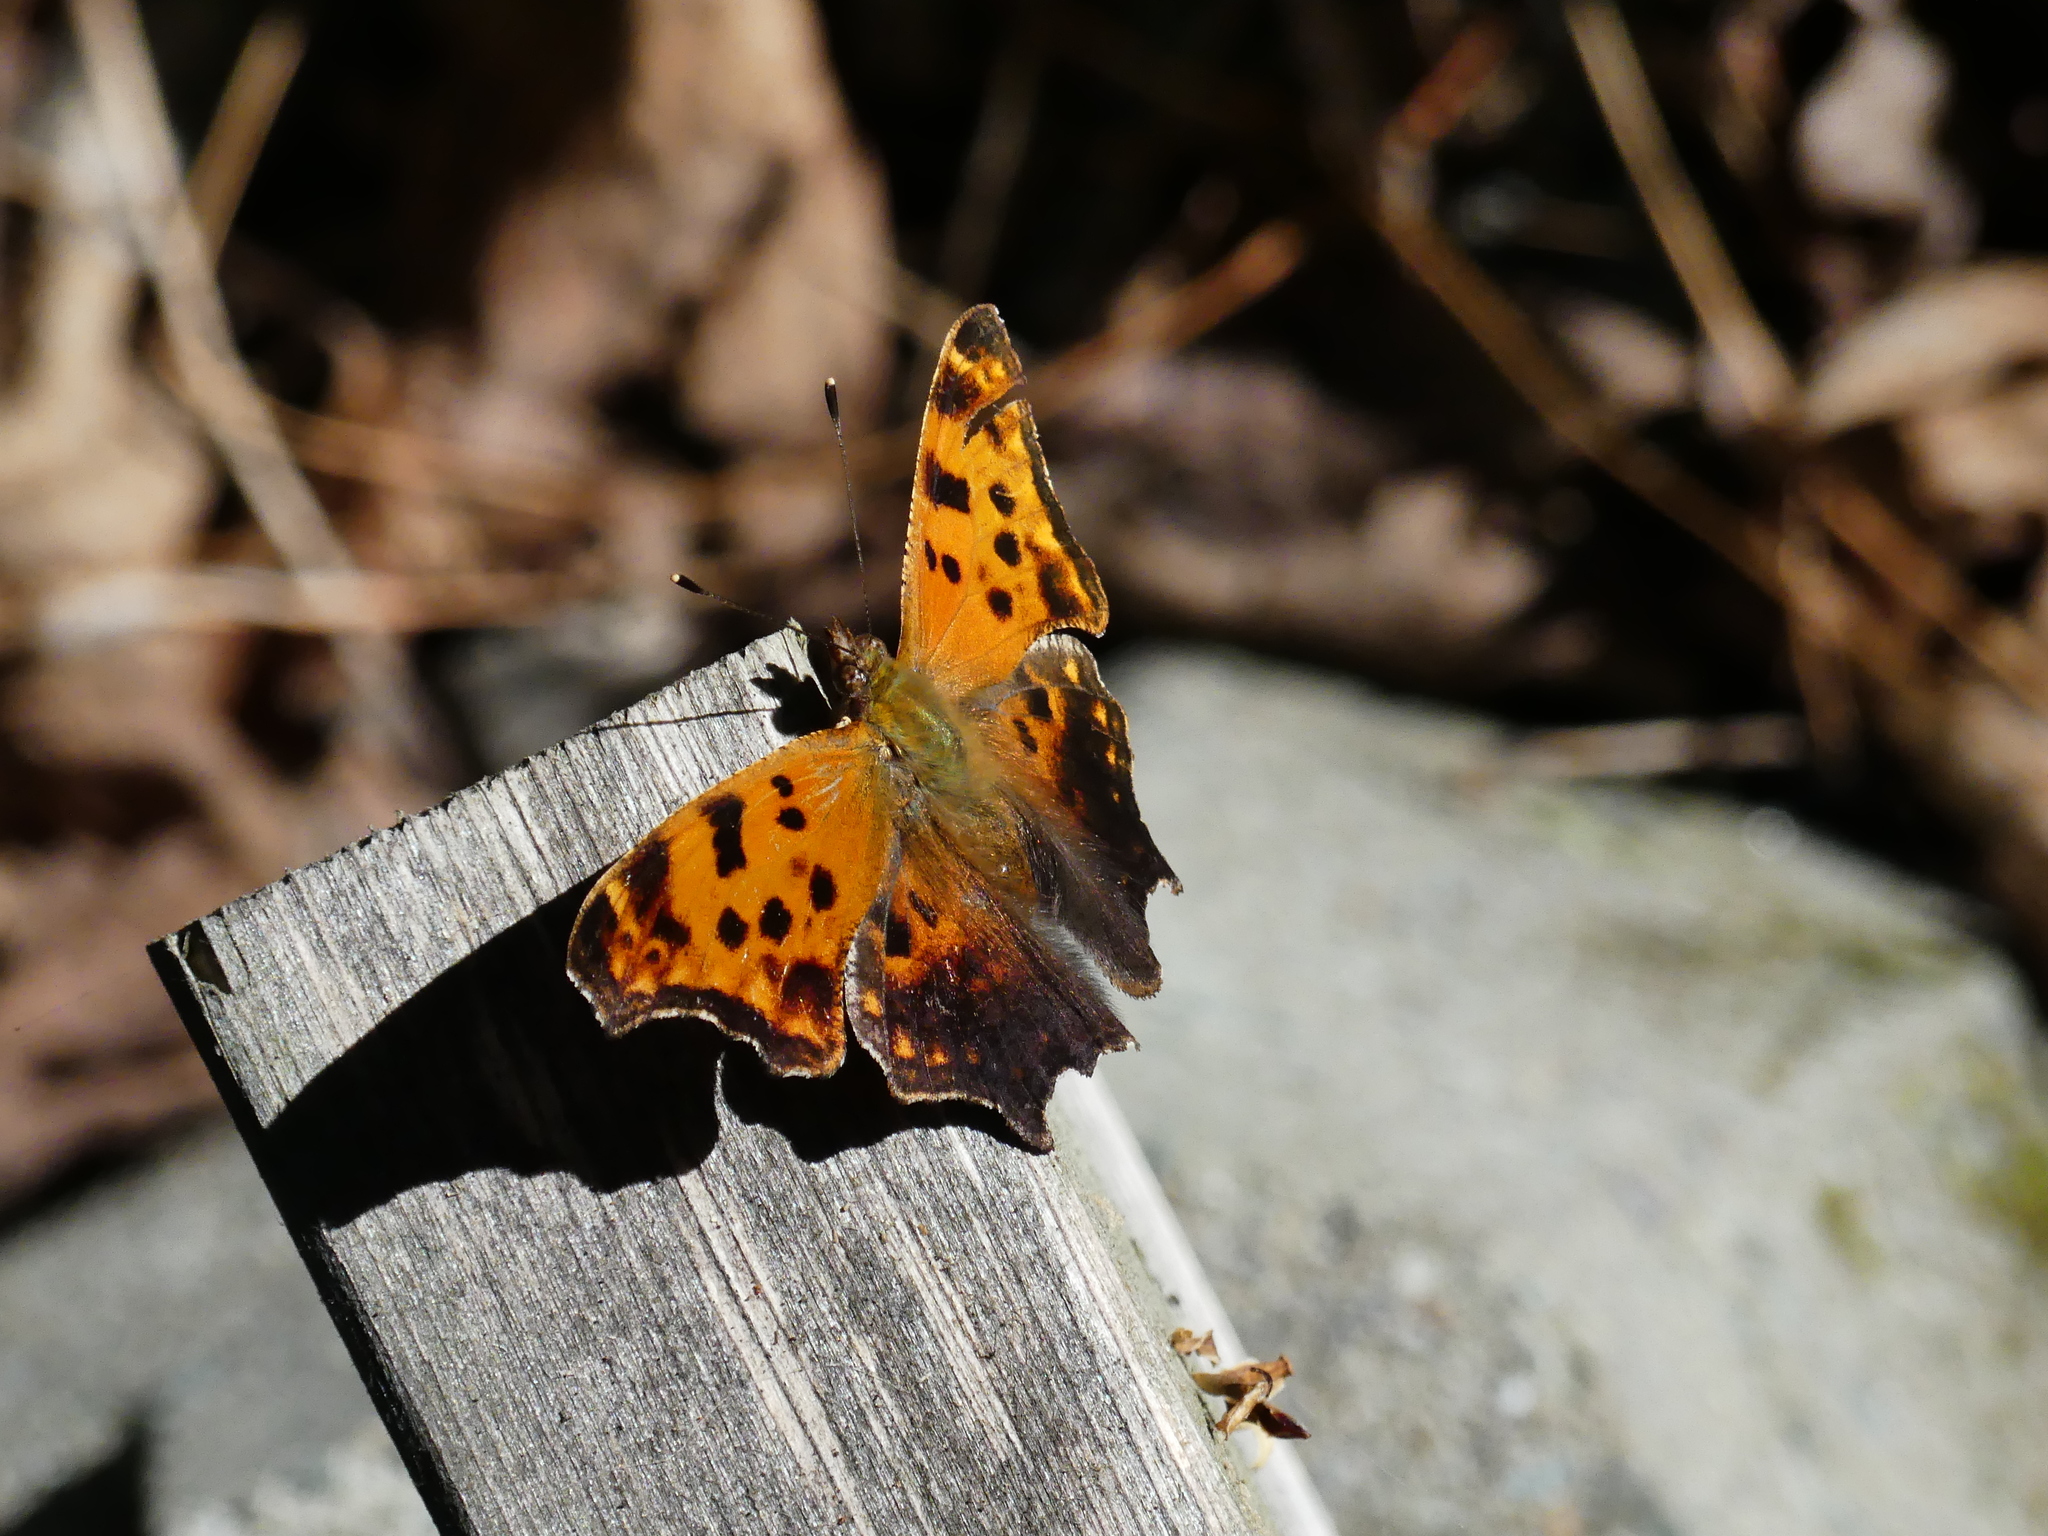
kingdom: Animalia
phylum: Arthropoda
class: Insecta
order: Lepidoptera
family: Nymphalidae
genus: Polygonia
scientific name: Polygonia comma
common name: Eastern comma
